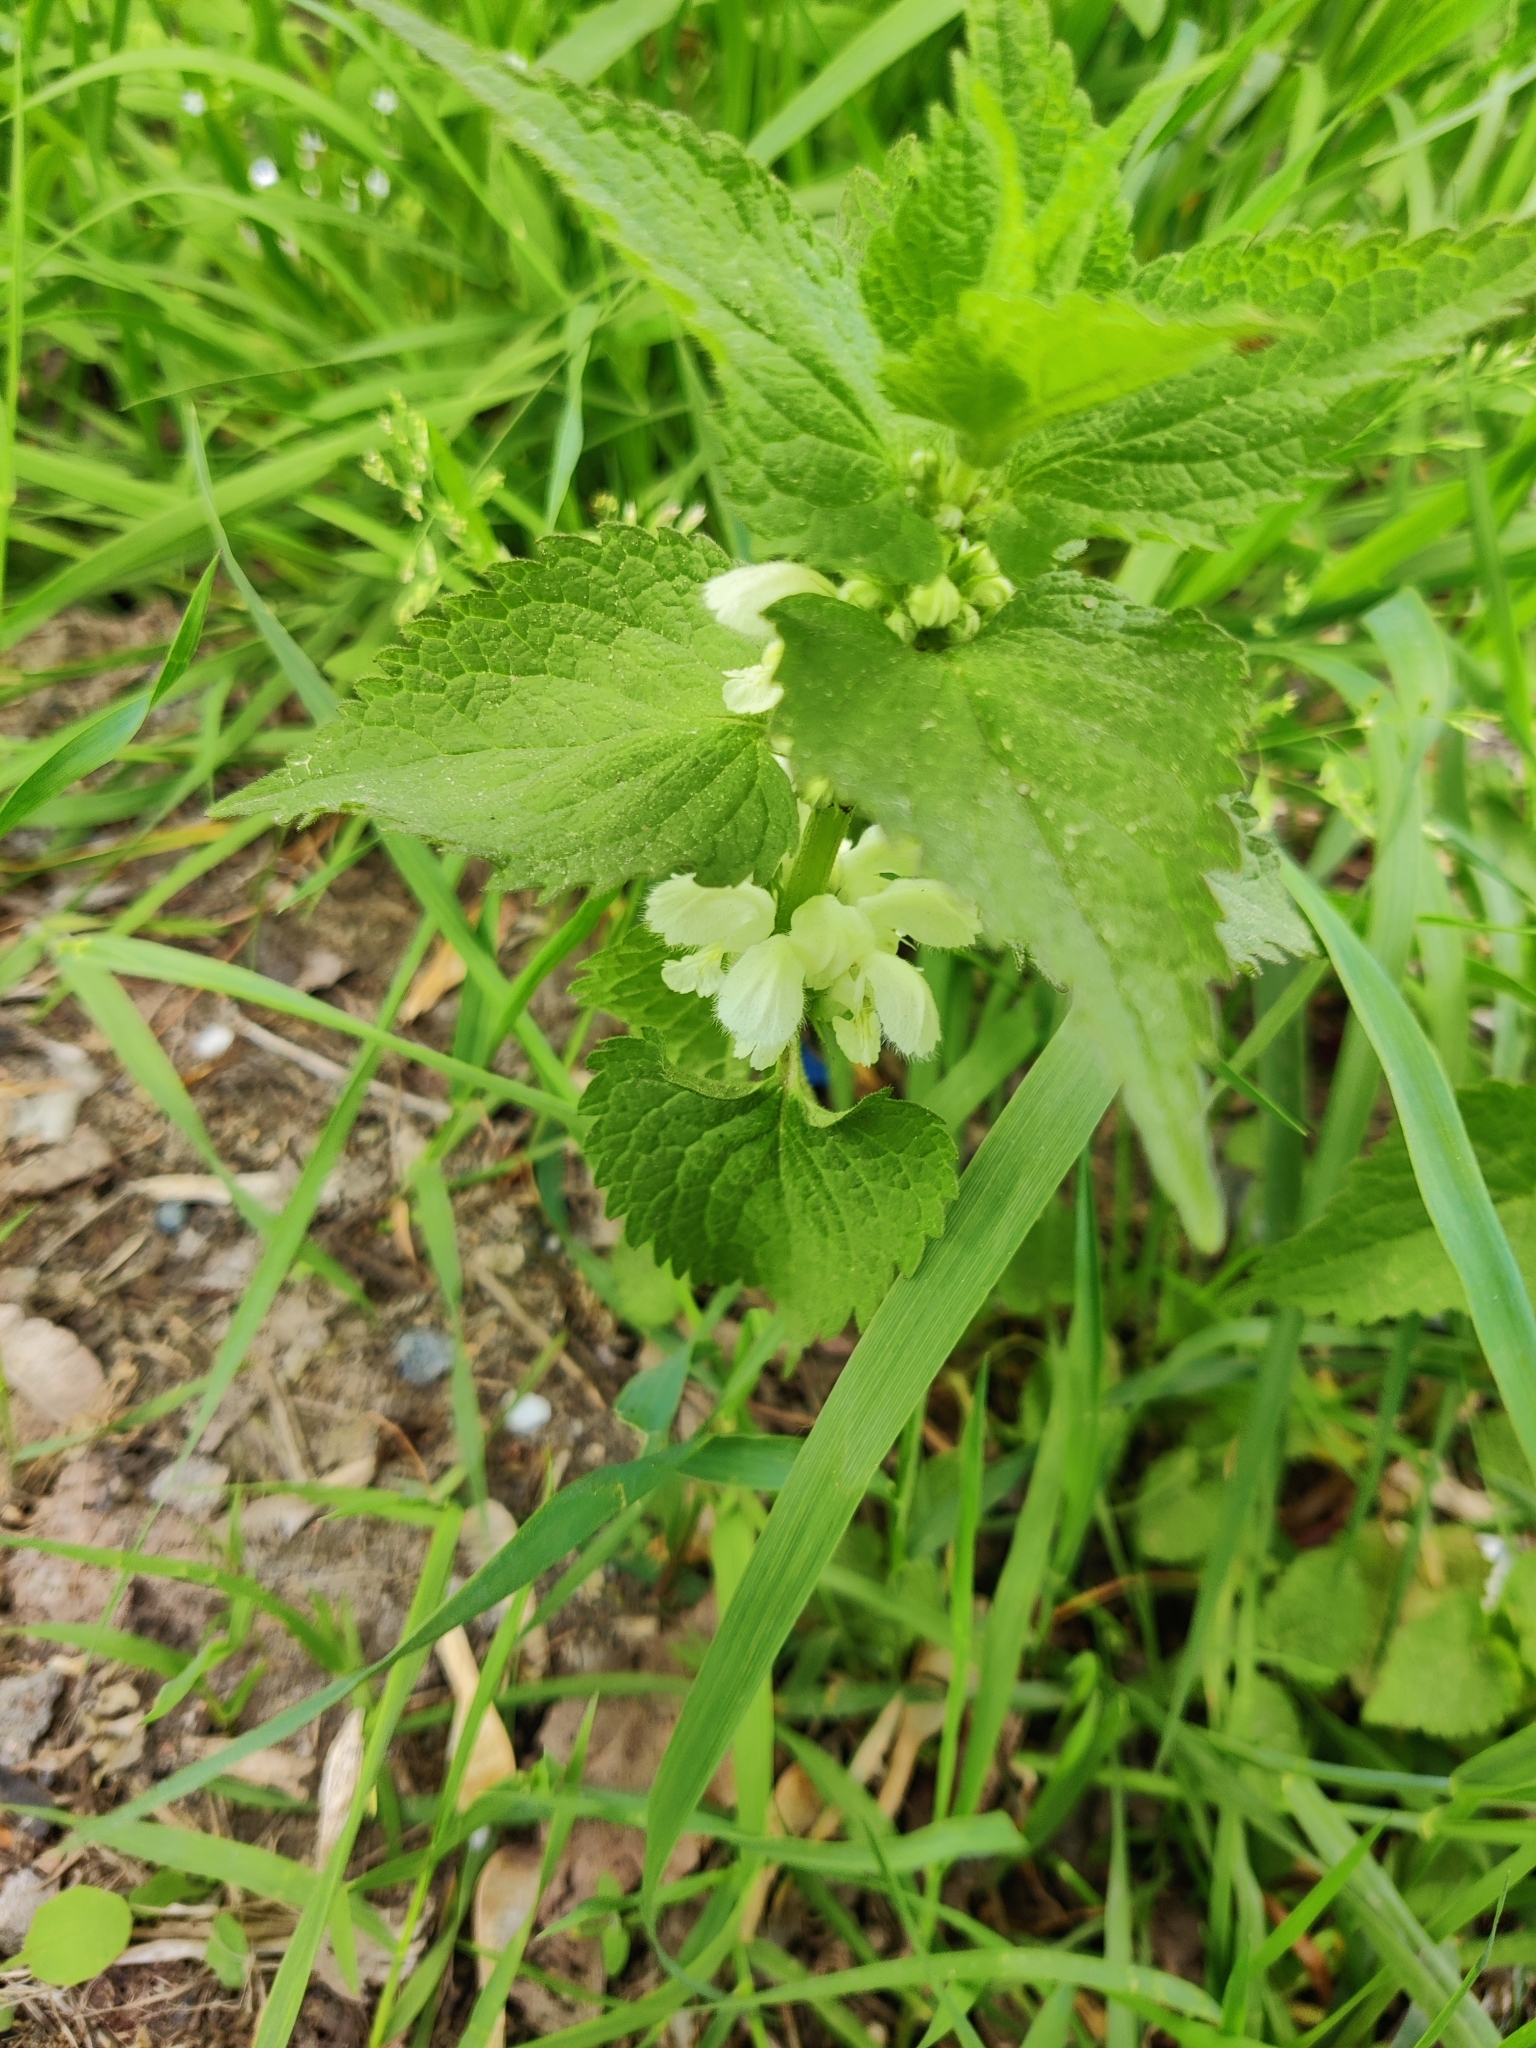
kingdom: Plantae
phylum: Tracheophyta
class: Magnoliopsida
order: Lamiales
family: Lamiaceae
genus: Lamium
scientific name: Lamium album
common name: White dead-nettle
